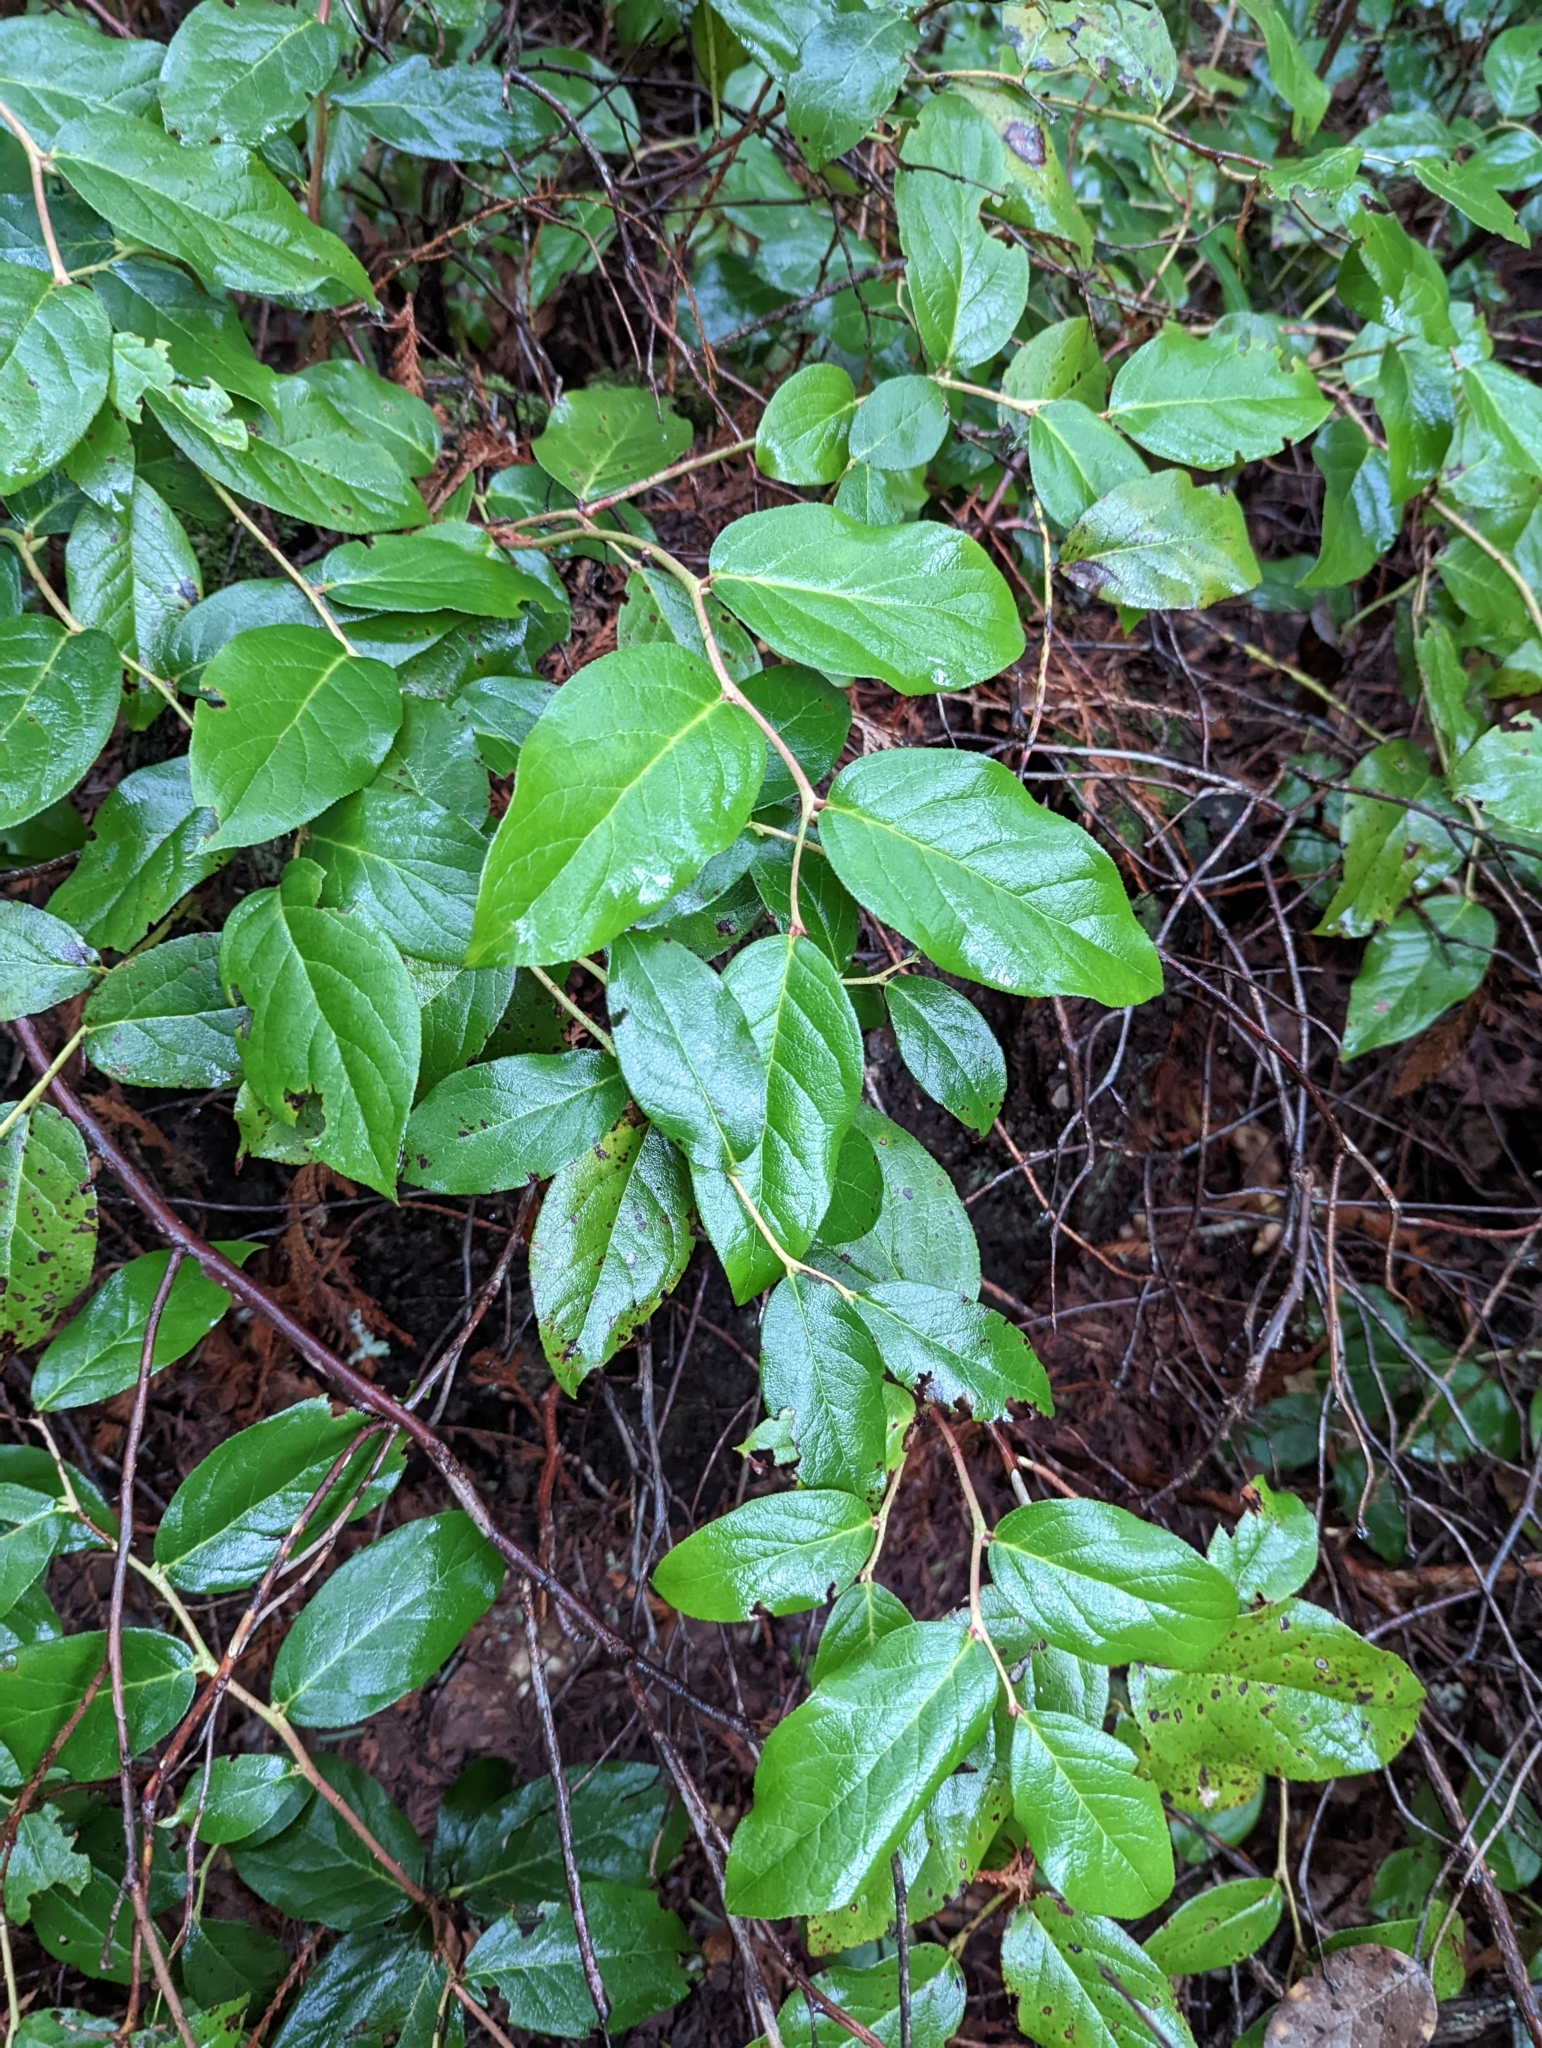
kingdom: Plantae
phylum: Tracheophyta
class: Magnoliopsida
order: Ericales
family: Ericaceae
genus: Gaultheria
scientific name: Gaultheria shallon
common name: Shallon
